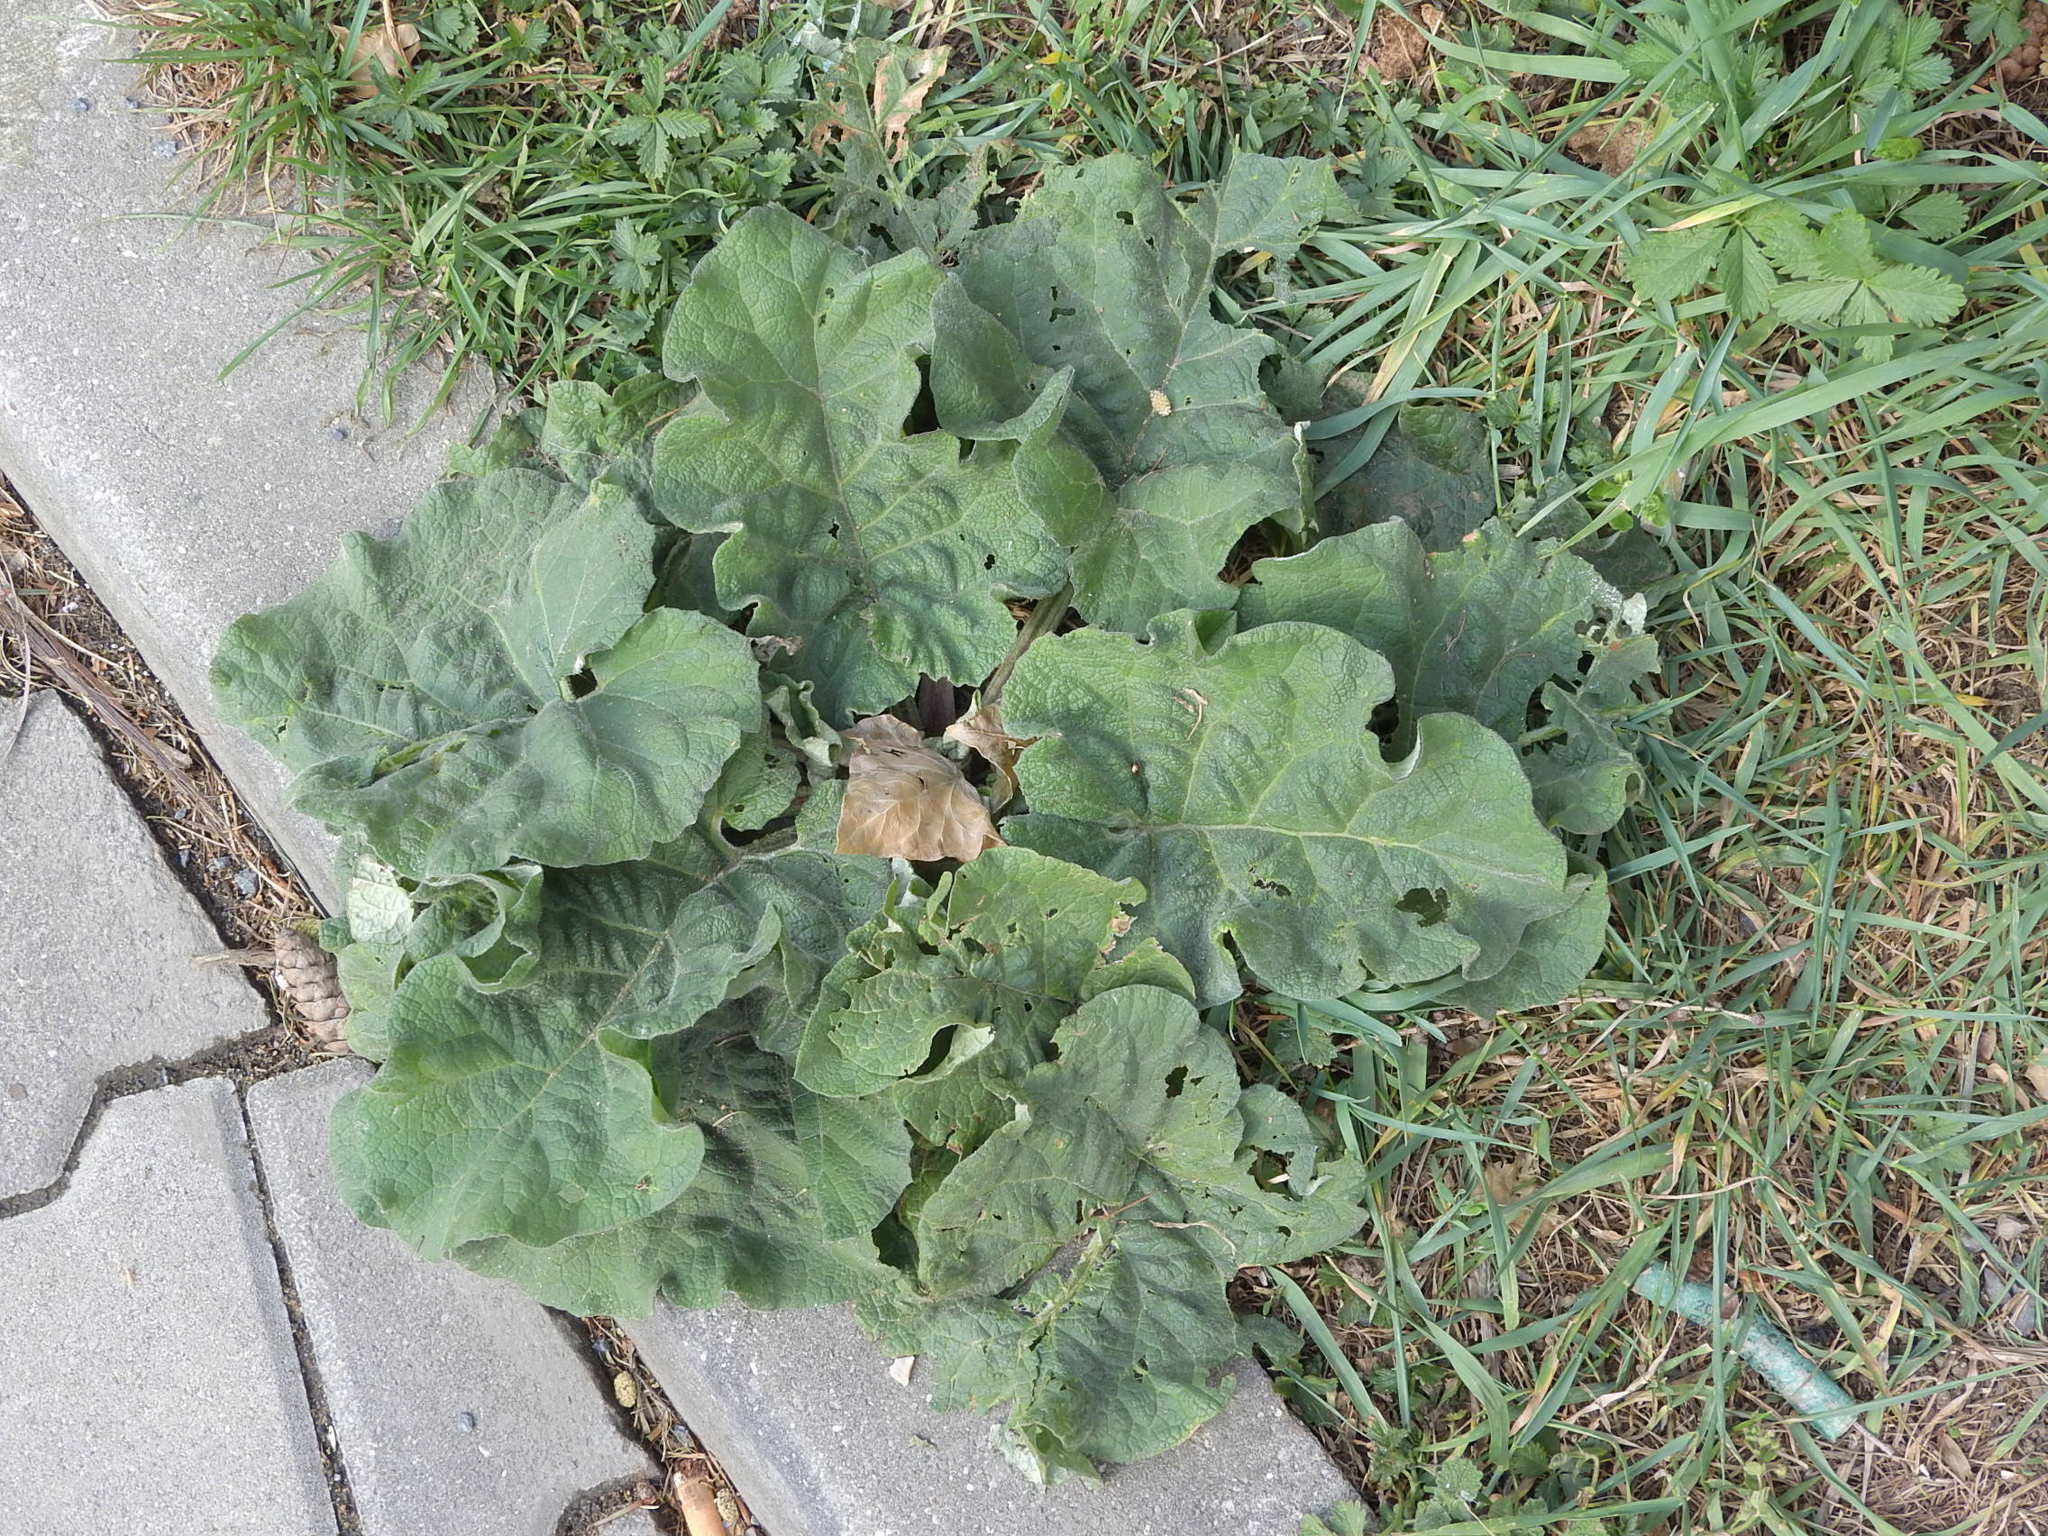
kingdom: Plantae
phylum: Tracheophyta
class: Magnoliopsida
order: Asterales
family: Asteraceae
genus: Arctium
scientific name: Arctium
